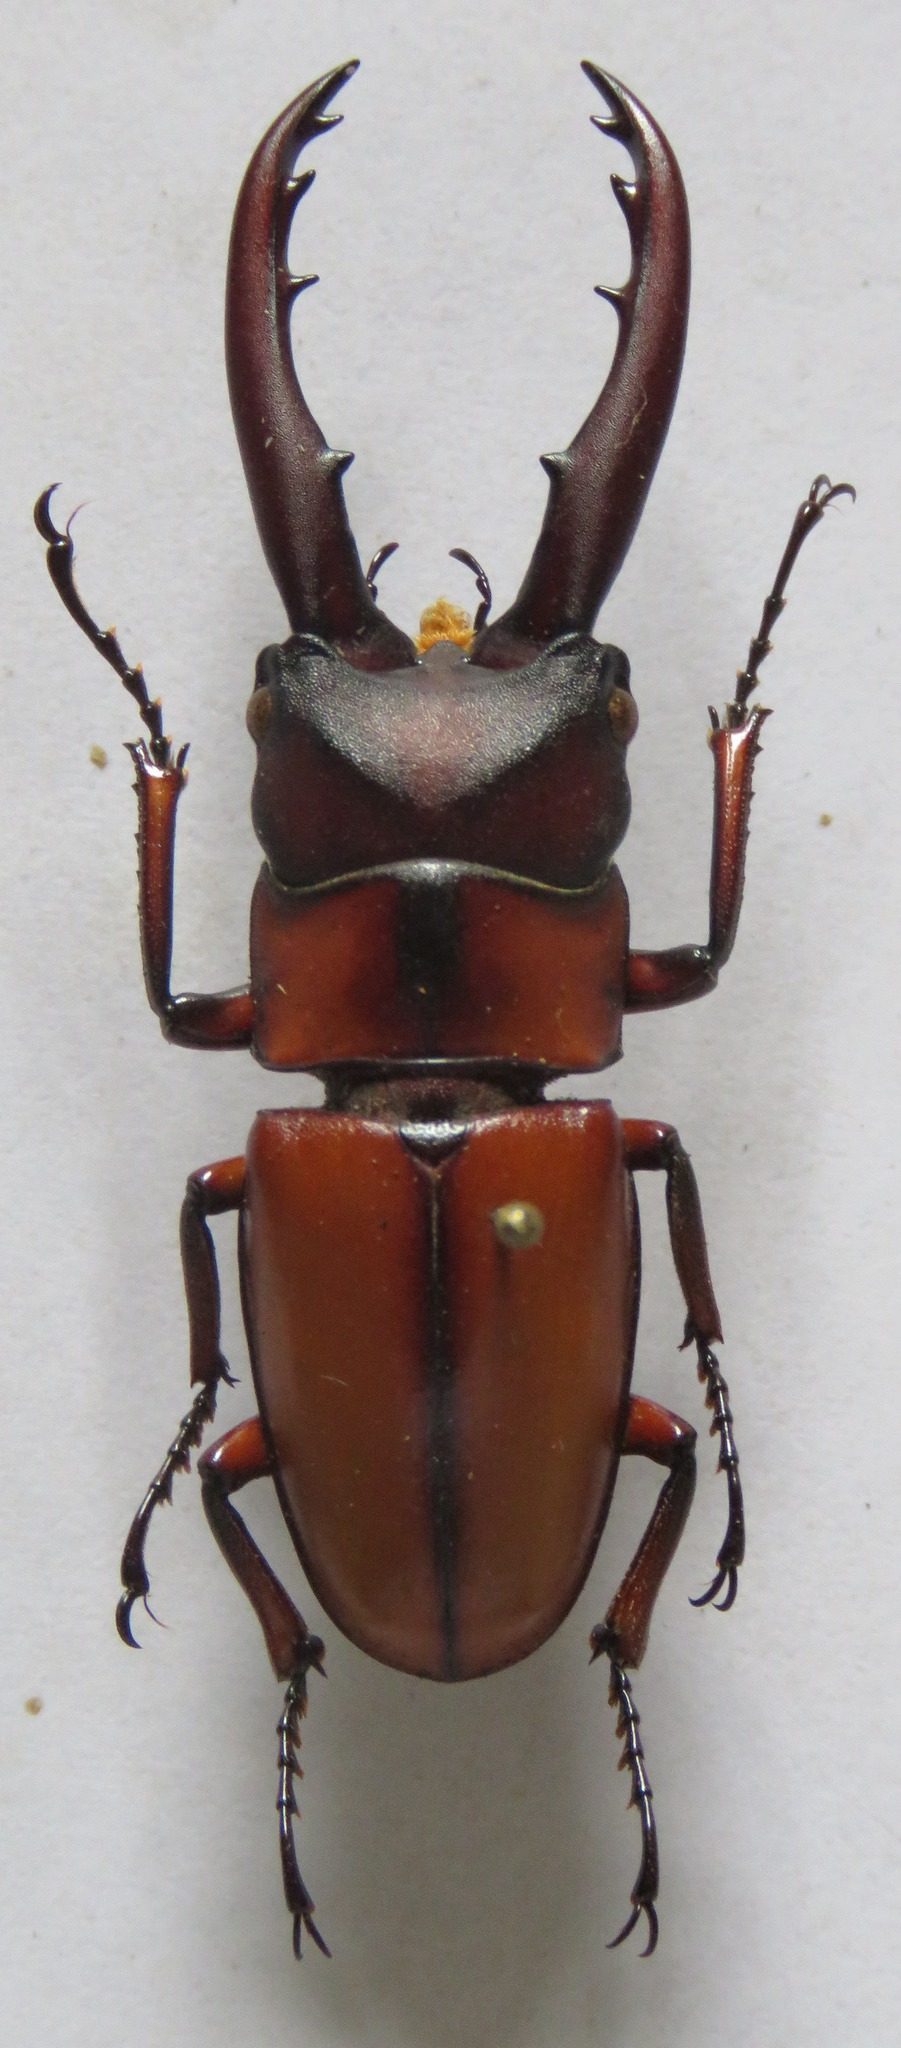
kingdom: Animalia
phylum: Arthropoda
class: Insecta
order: Coleoptera
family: Lucanidae
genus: Prosopocoilus
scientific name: Prosopocoilus mohnikei
